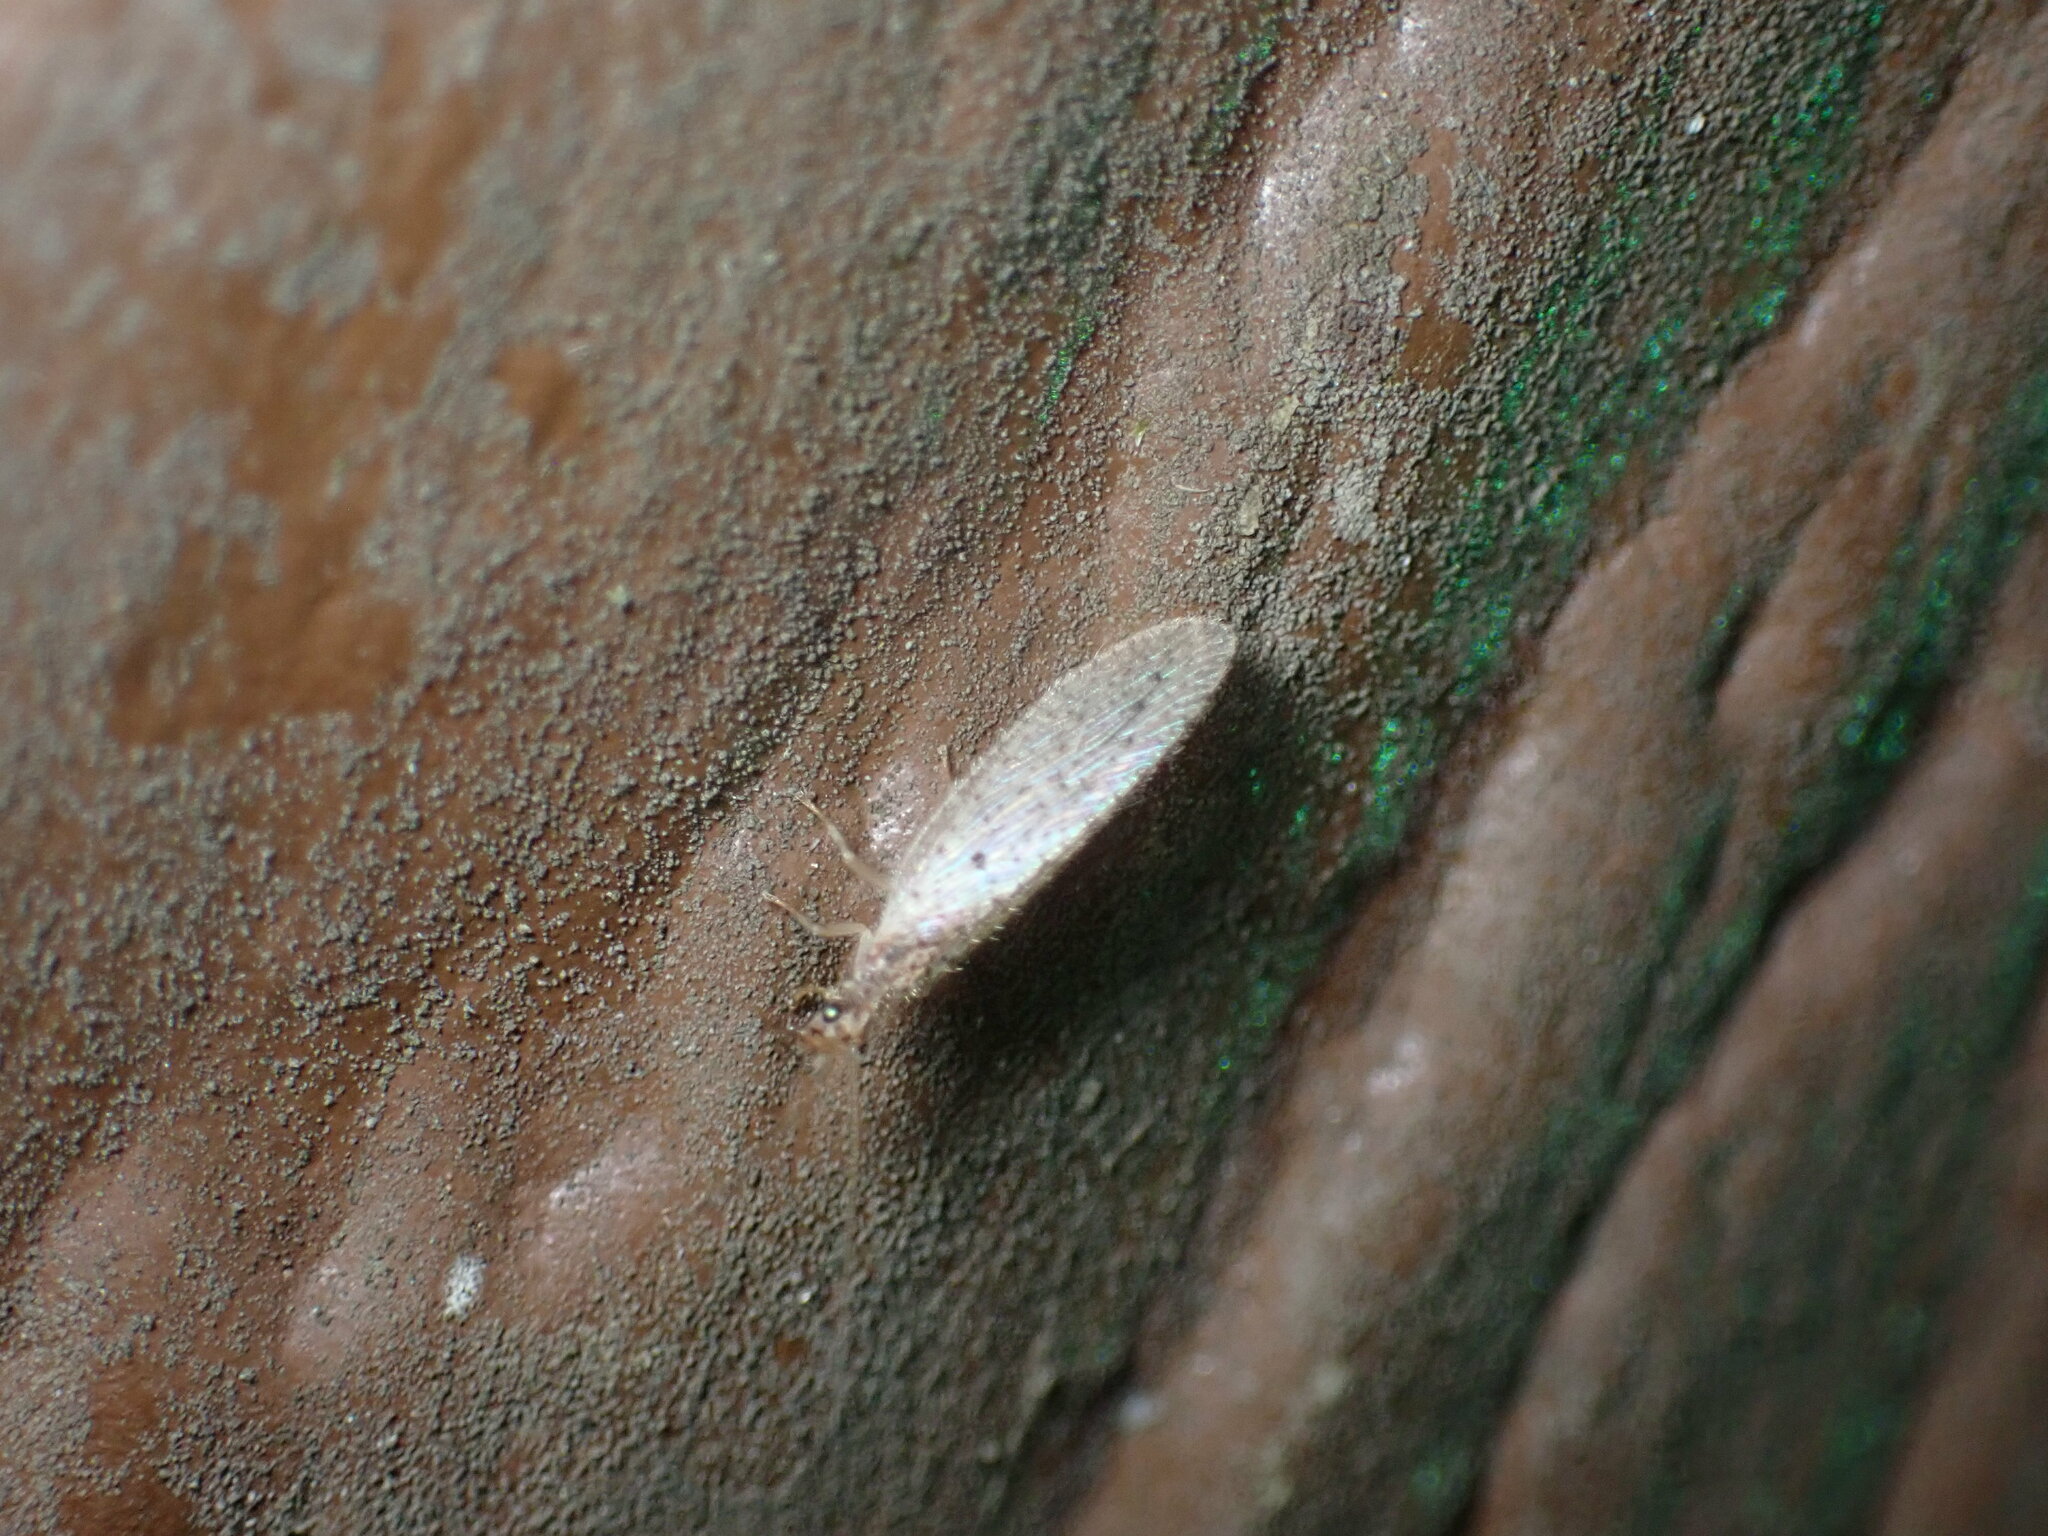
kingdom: Animalia
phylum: Arthropoda
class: Insecta
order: Neuroptera
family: Hemerobiidae
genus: Micromus
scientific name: Micromus subanticus
